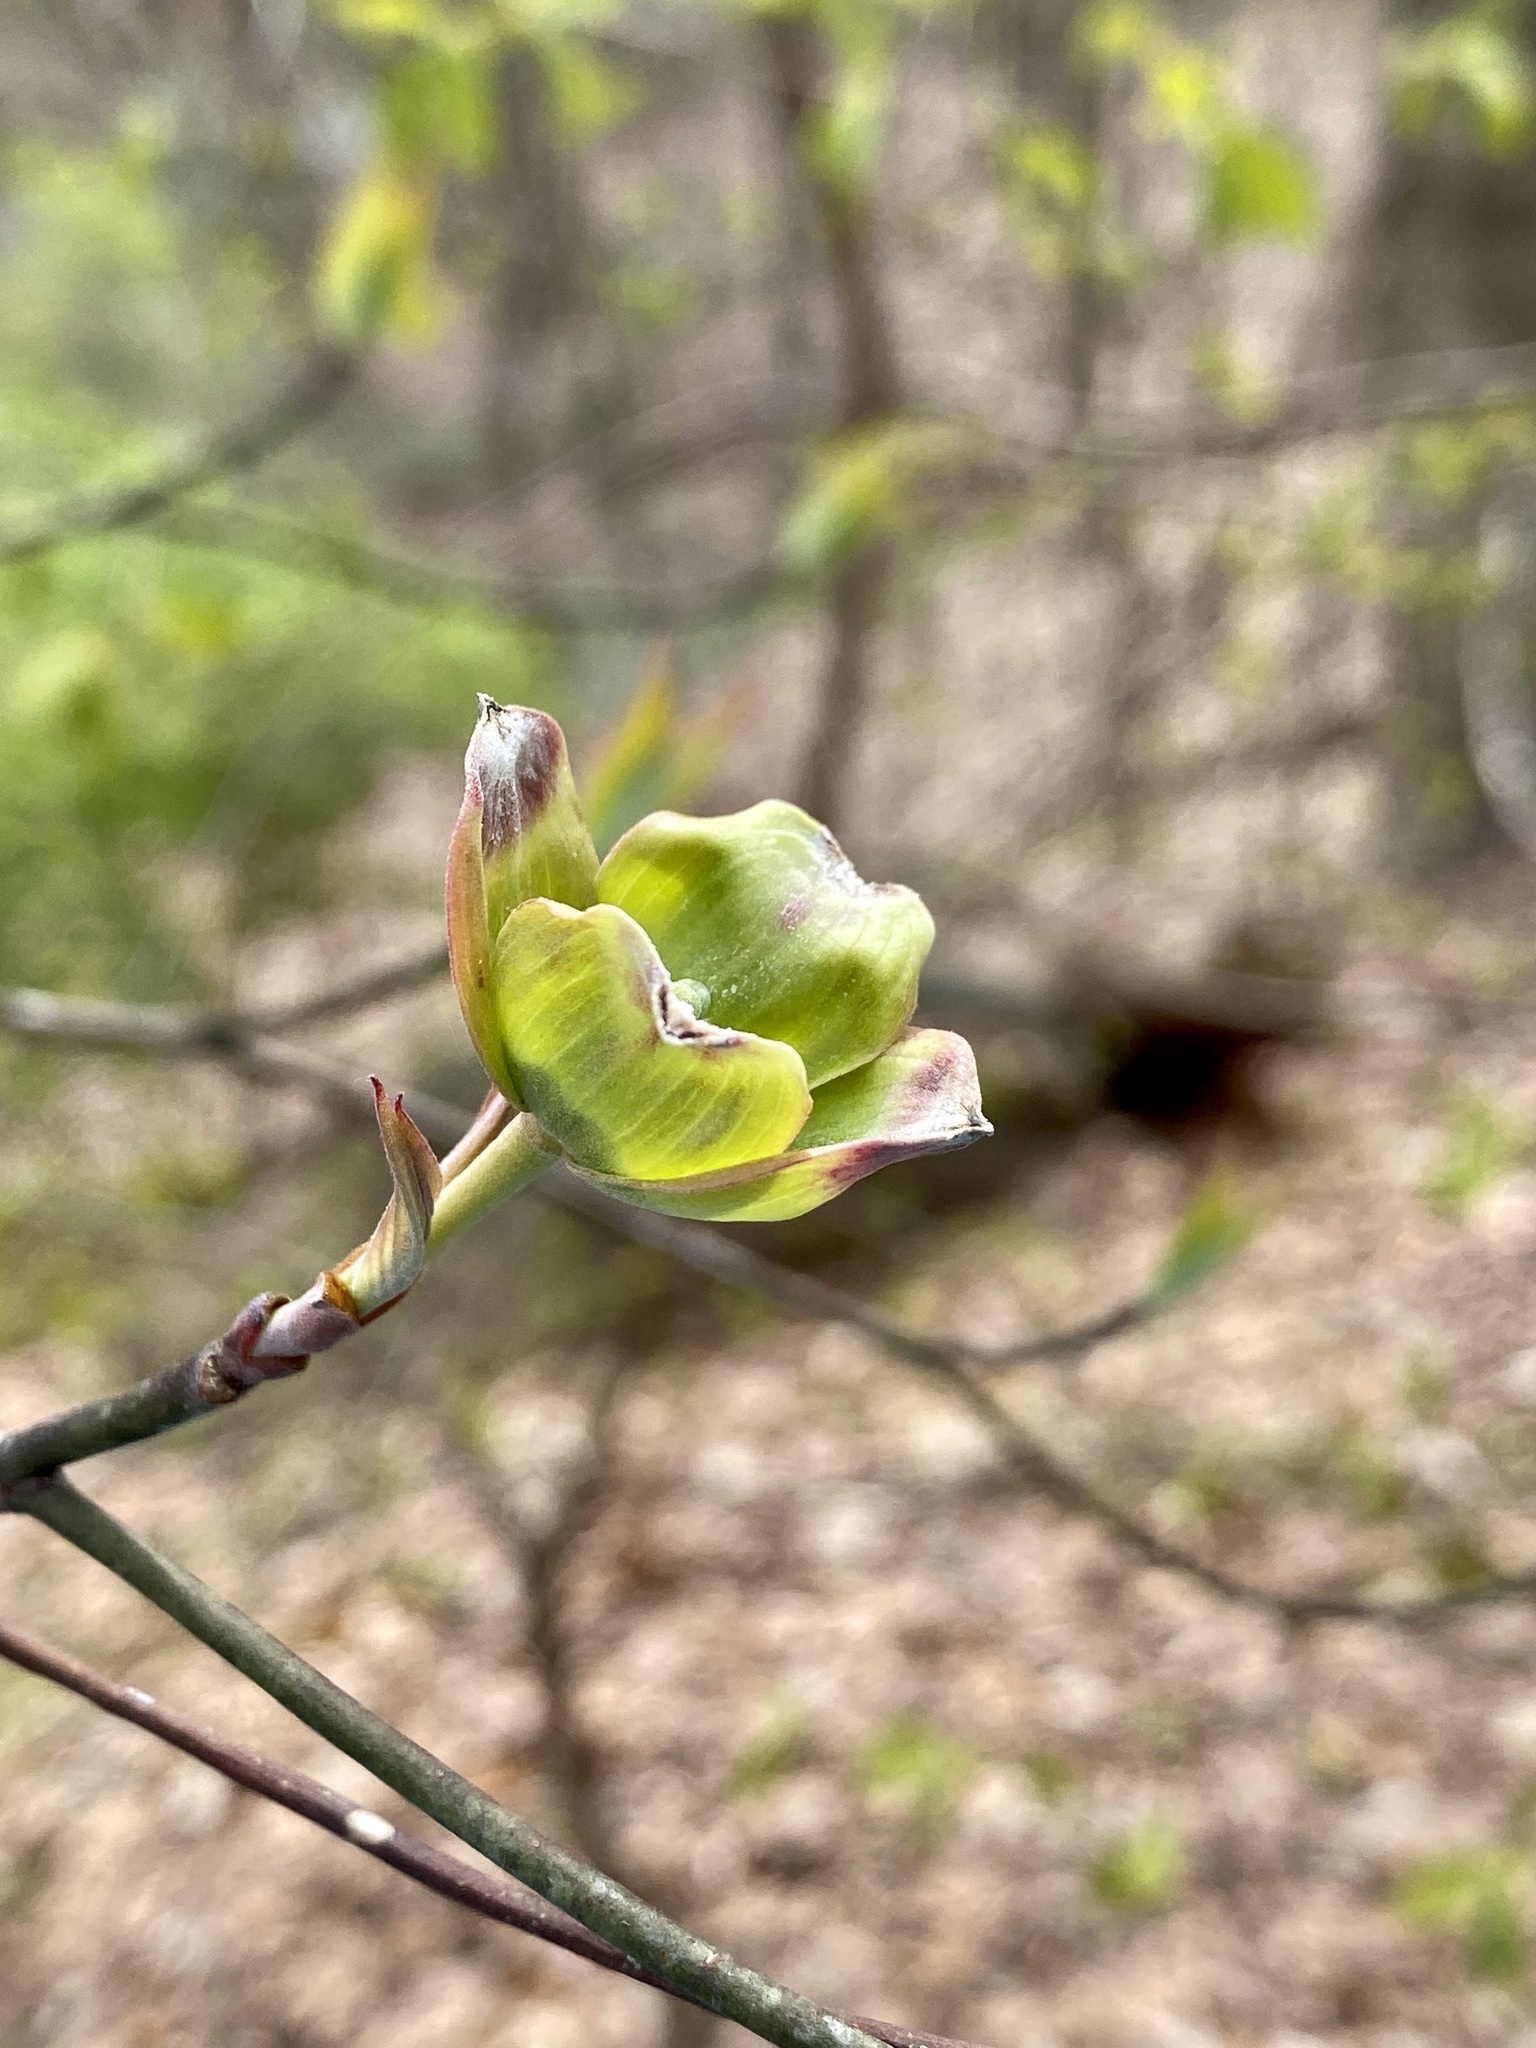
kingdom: Plantae
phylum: Tracheophyta
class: Magnoliopsida
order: Cornales
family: Cornaceae
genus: Cornus
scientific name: Cornus florida
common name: Flowering dogwood
